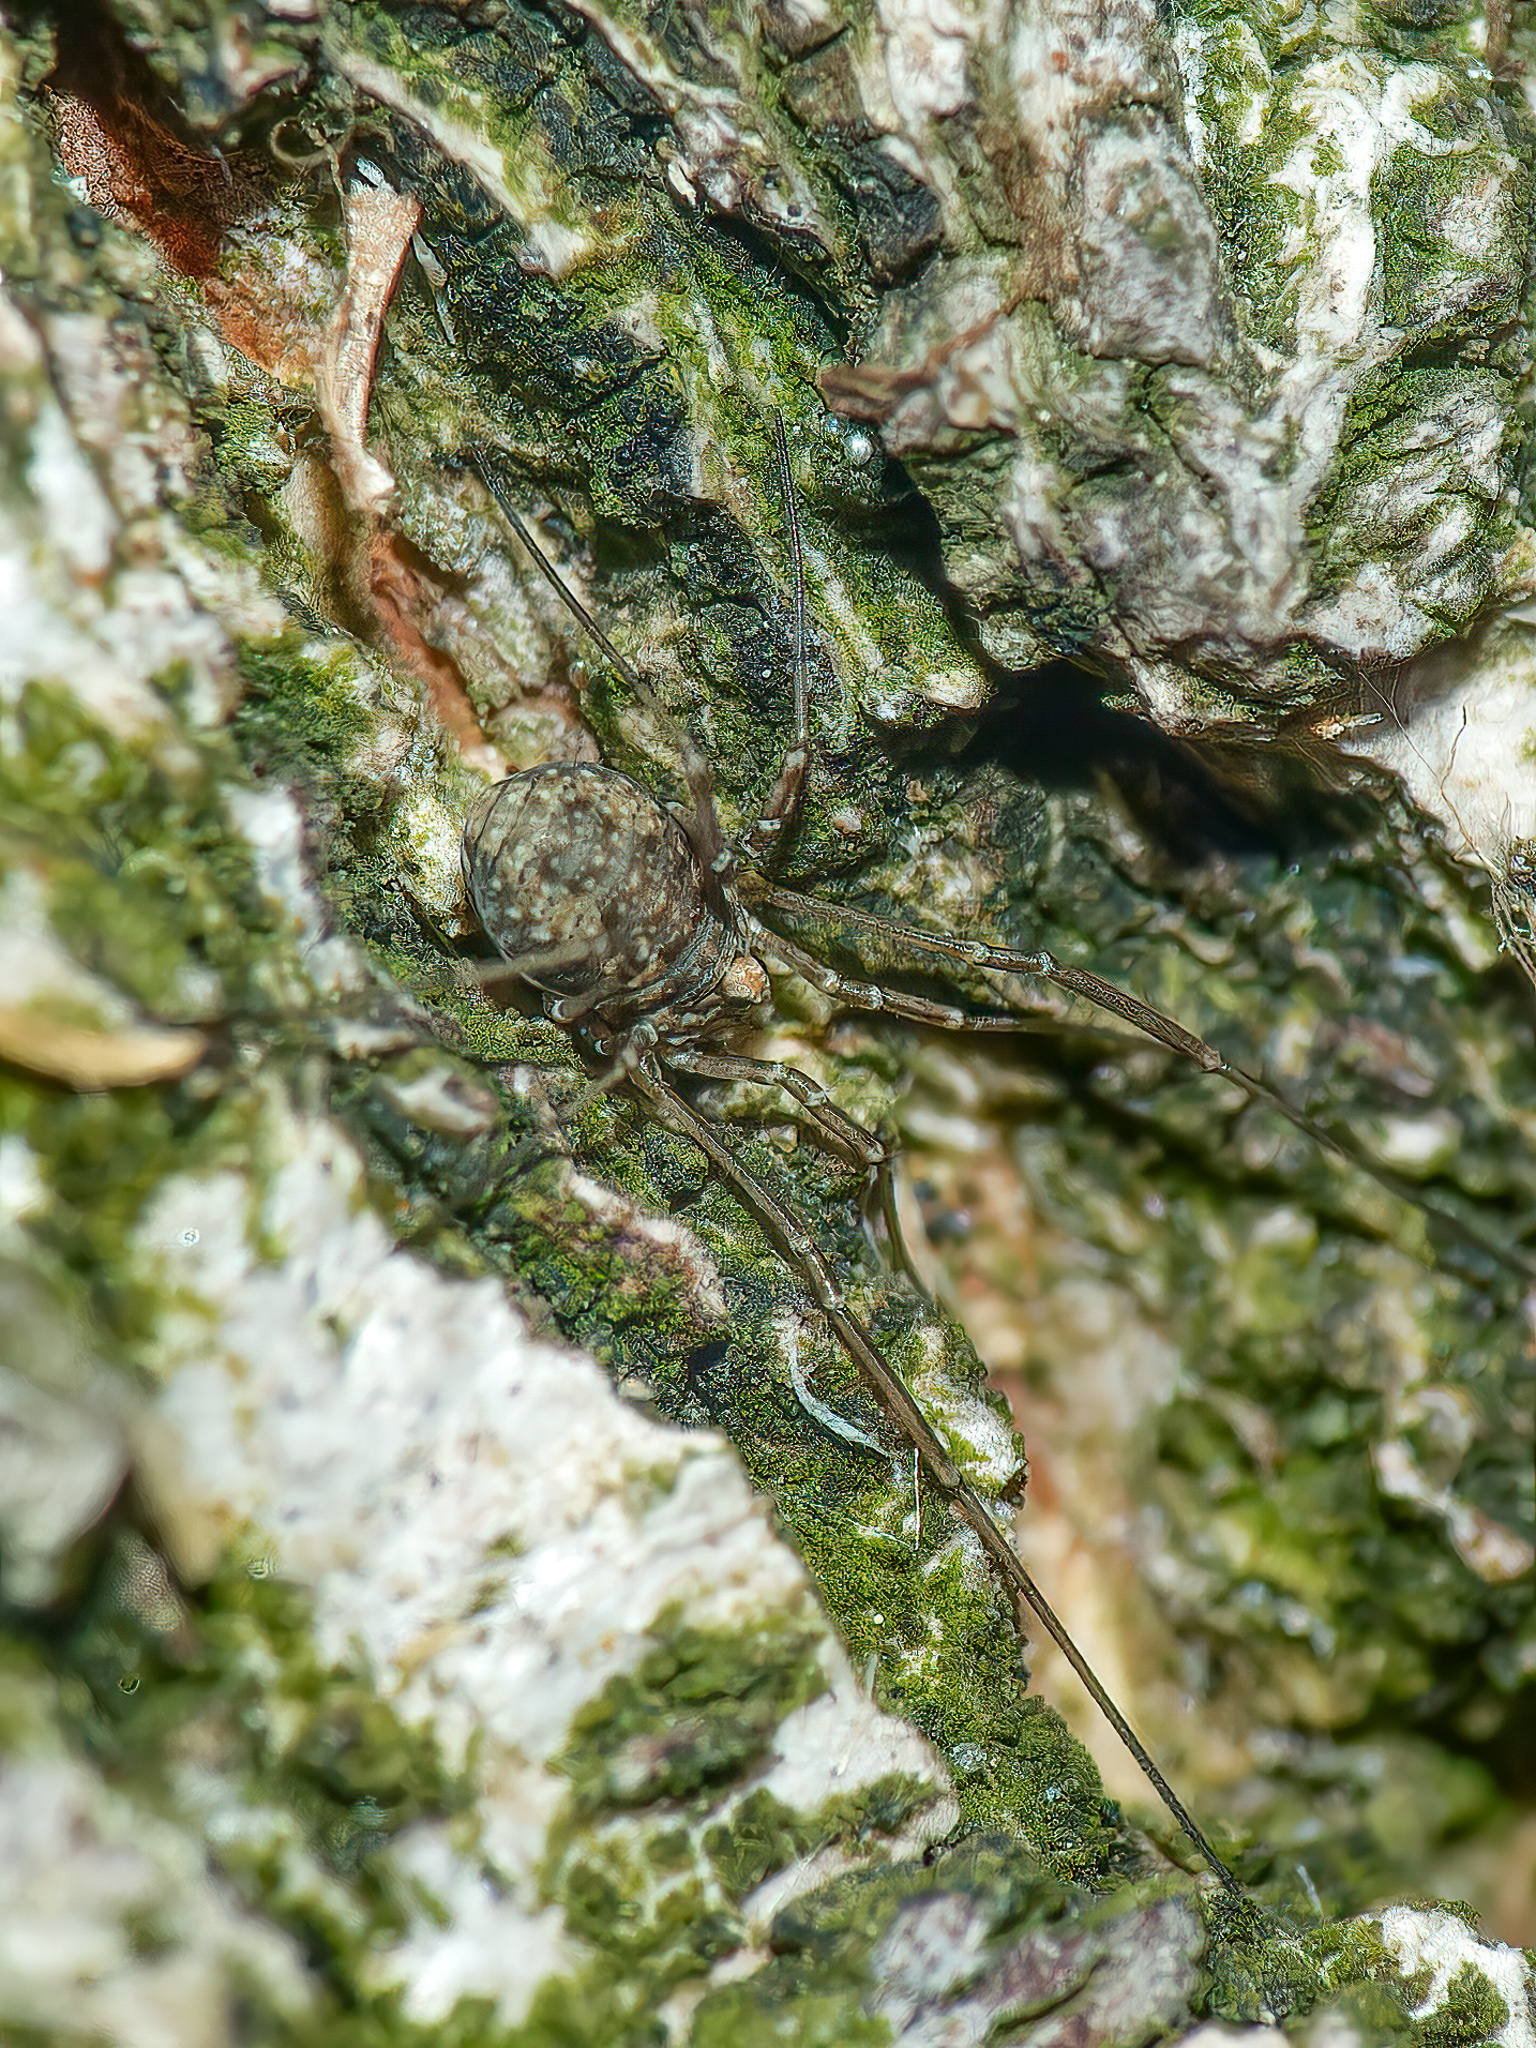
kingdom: Animalia
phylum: Arthropoda
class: Arachnida
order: Opiliones
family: Phalangiidae
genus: Phalangium
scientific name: Phalangium opilio
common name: Daddy longleg
